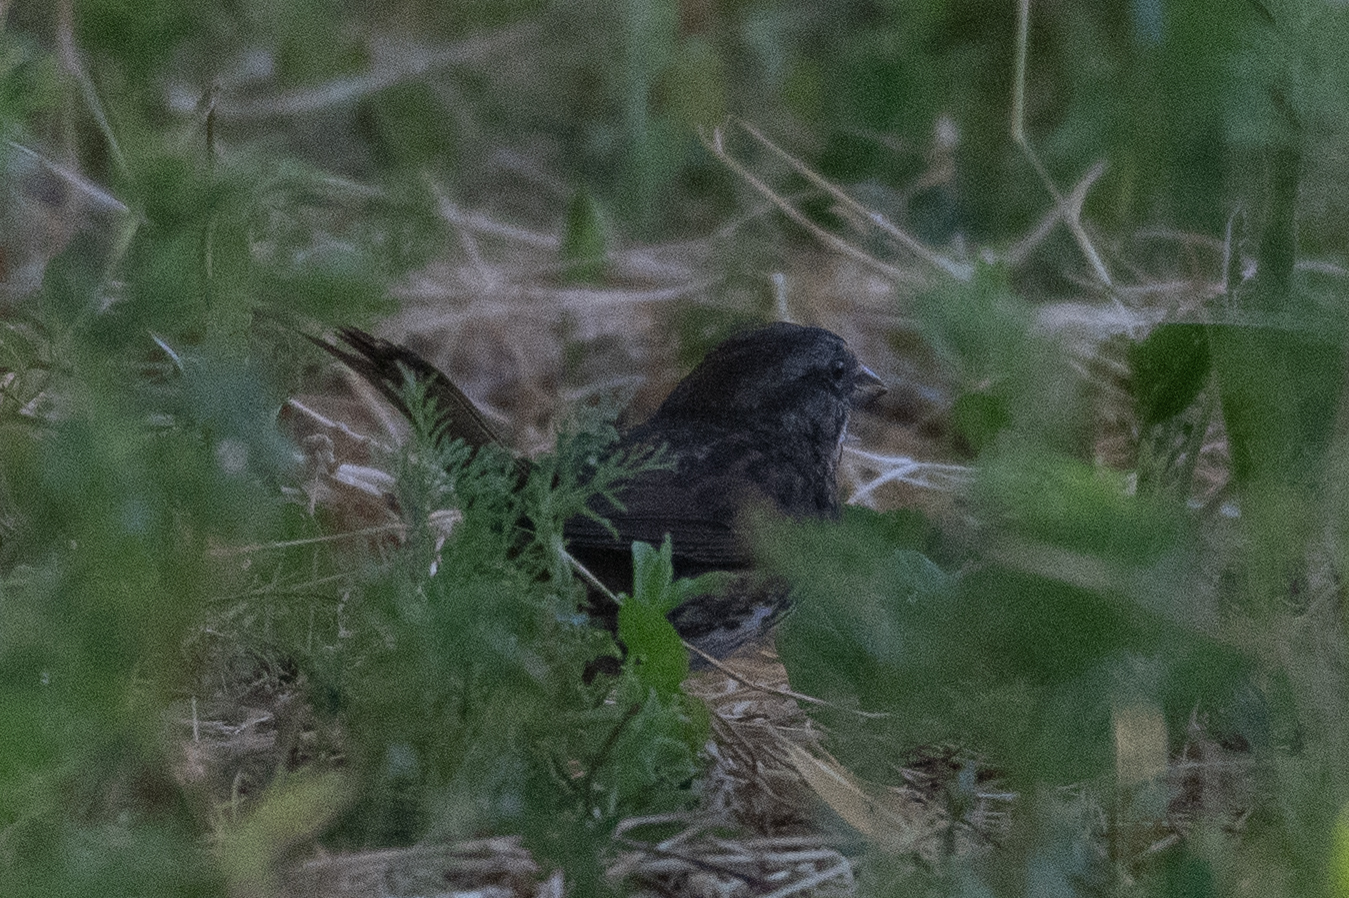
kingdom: Animalia
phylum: Chordata
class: Aves
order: Passeriformes
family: Passerellidae
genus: Melospiza
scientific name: Melospiza melodia
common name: Song sparrow
